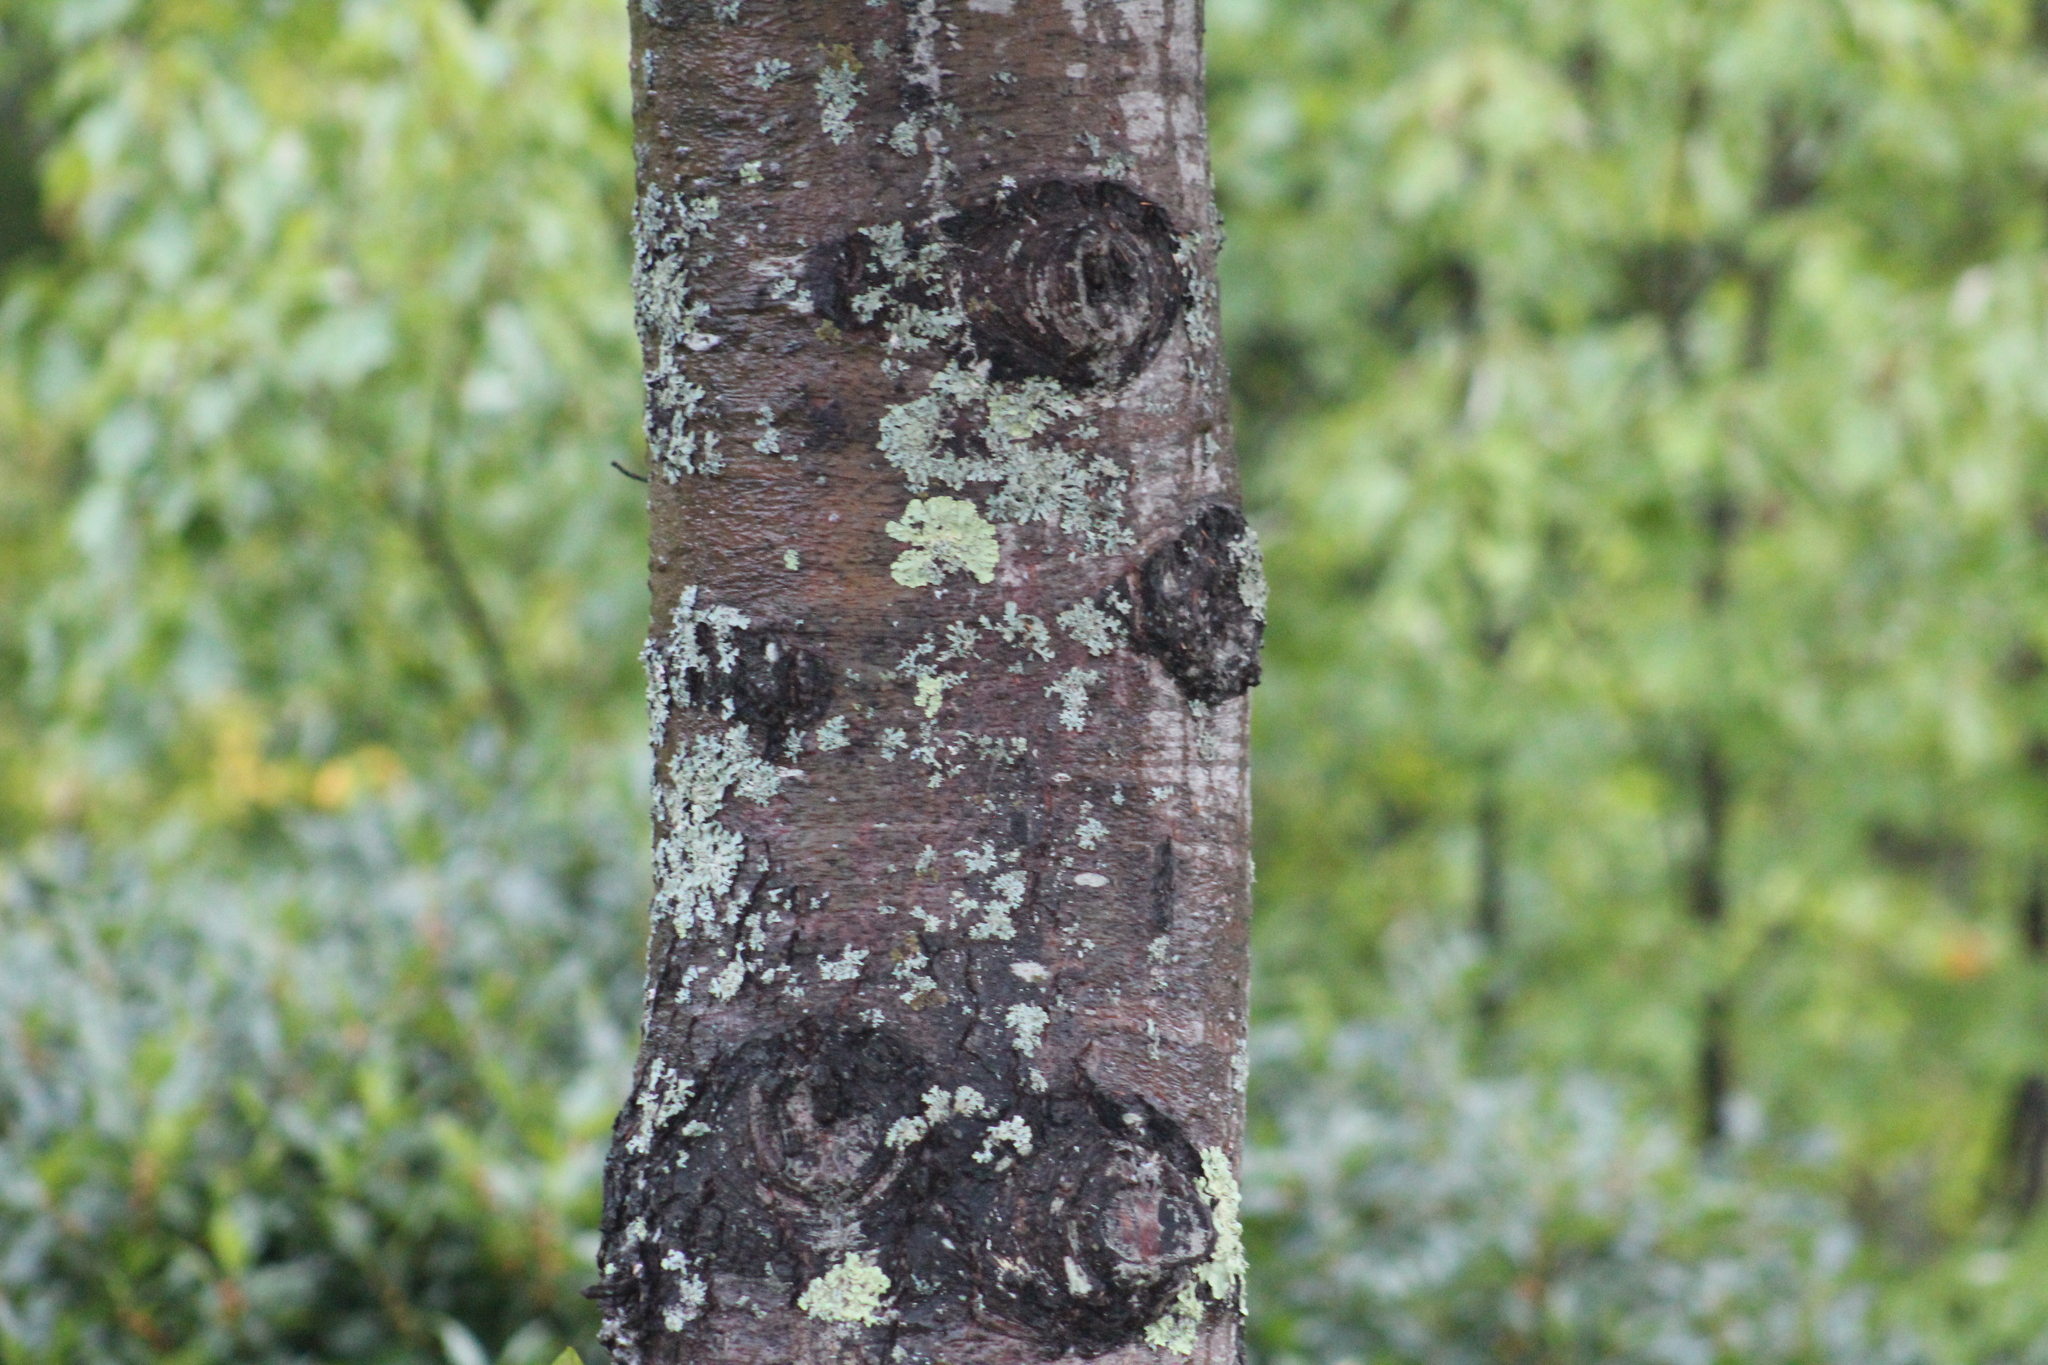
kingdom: Plantae
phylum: Tracheophyta
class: Pinopsida
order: Pinales
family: Pinaceae
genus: Pinus
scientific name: Pinus strobus
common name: Weymouth pine
